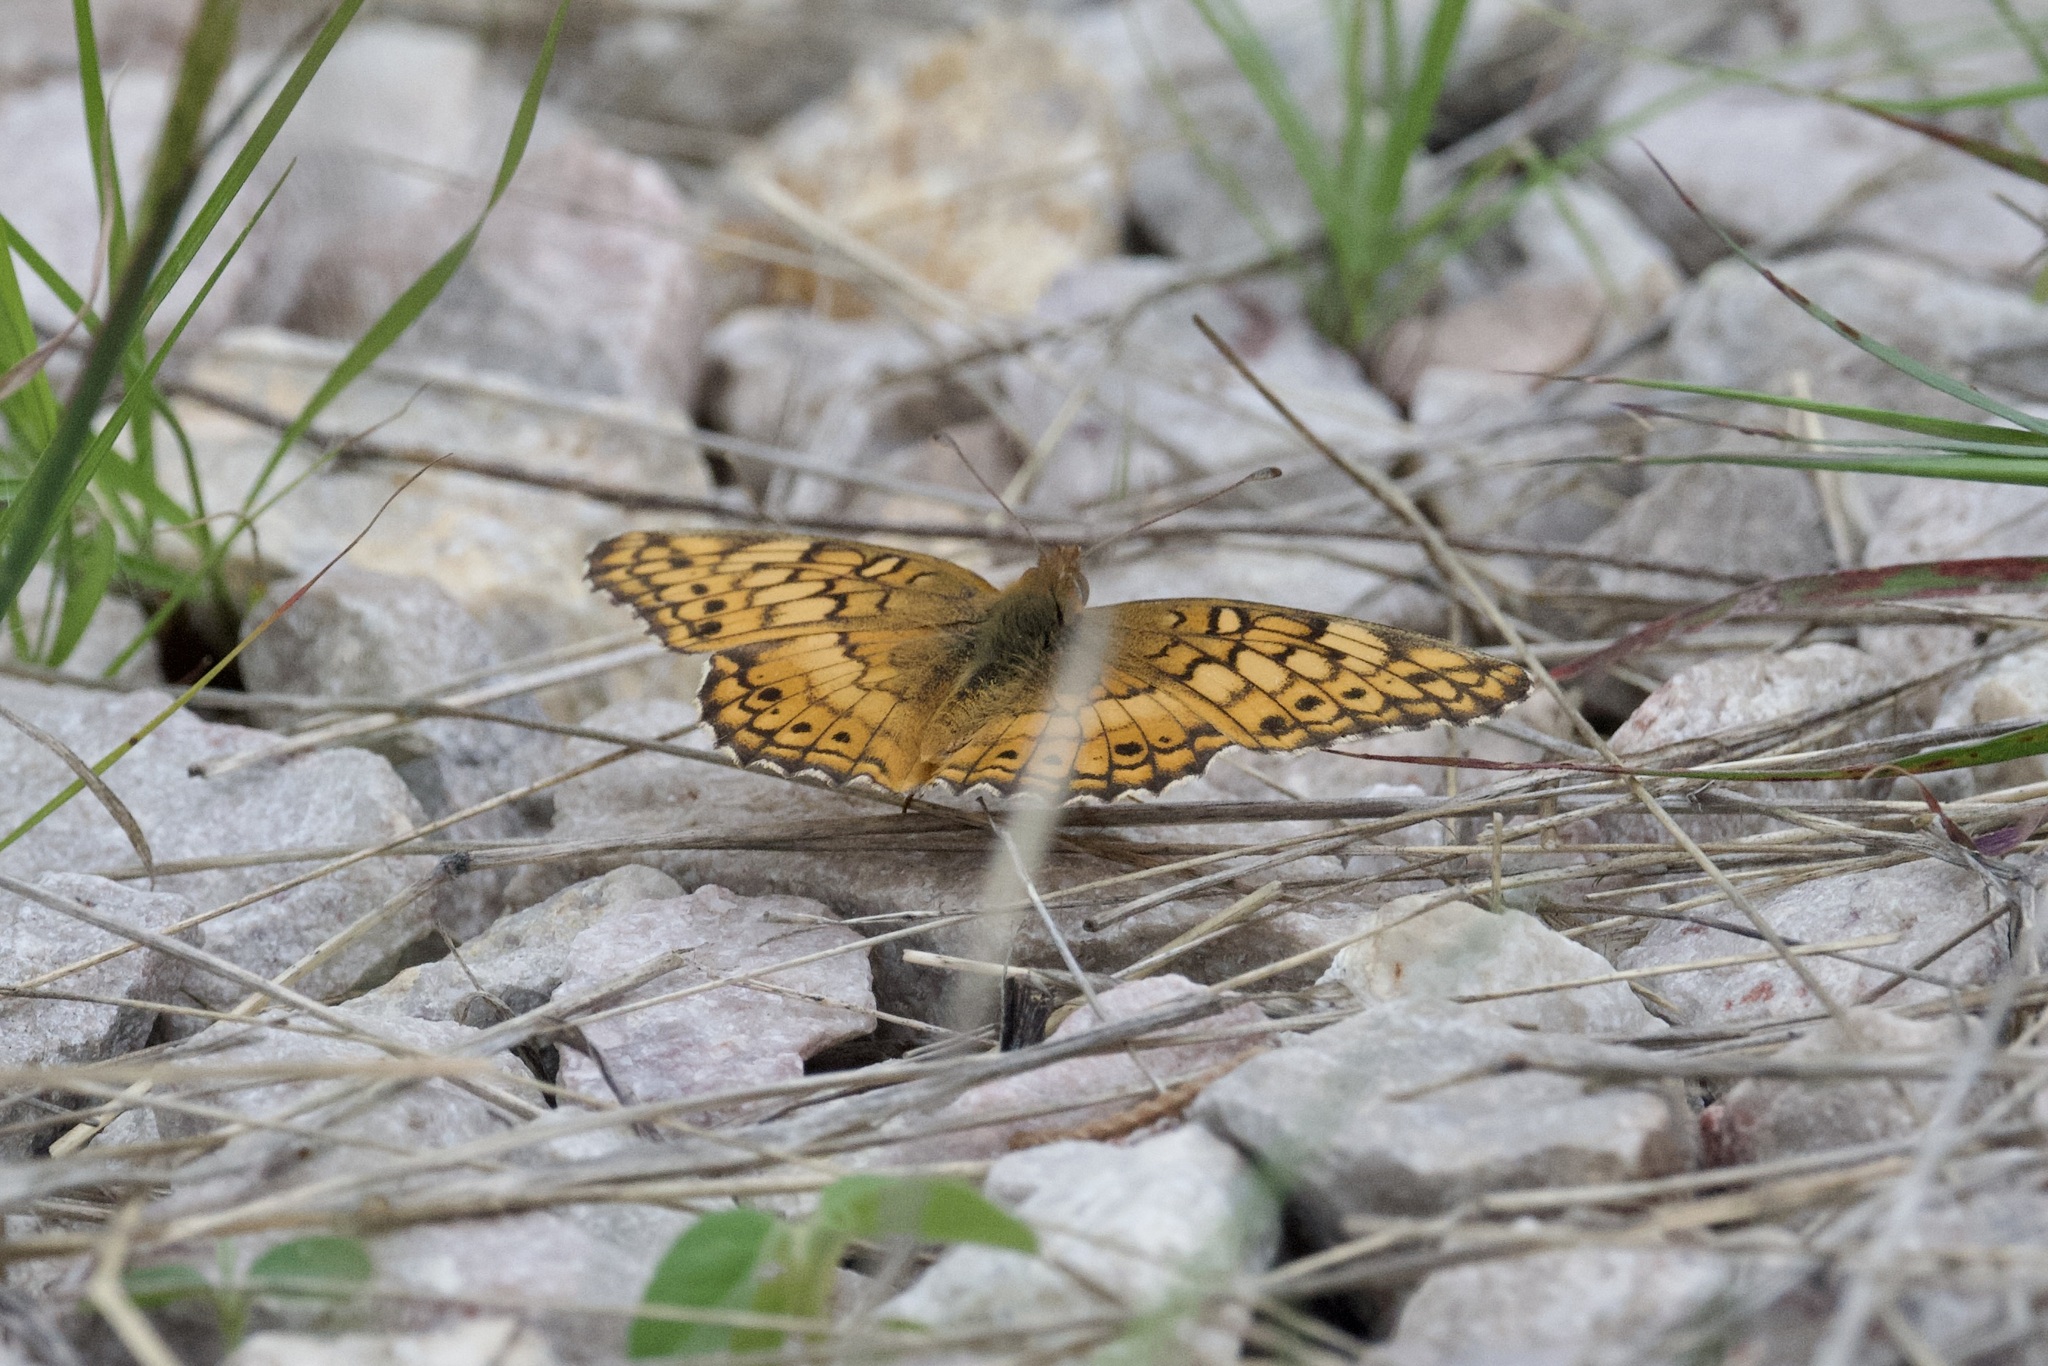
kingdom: Animalia
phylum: Arthropoda
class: Insecta
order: Lepidoptera
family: Nymphalidae
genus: Euptoieta
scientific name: Euptoieta claudia
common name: Variegated fritillary
